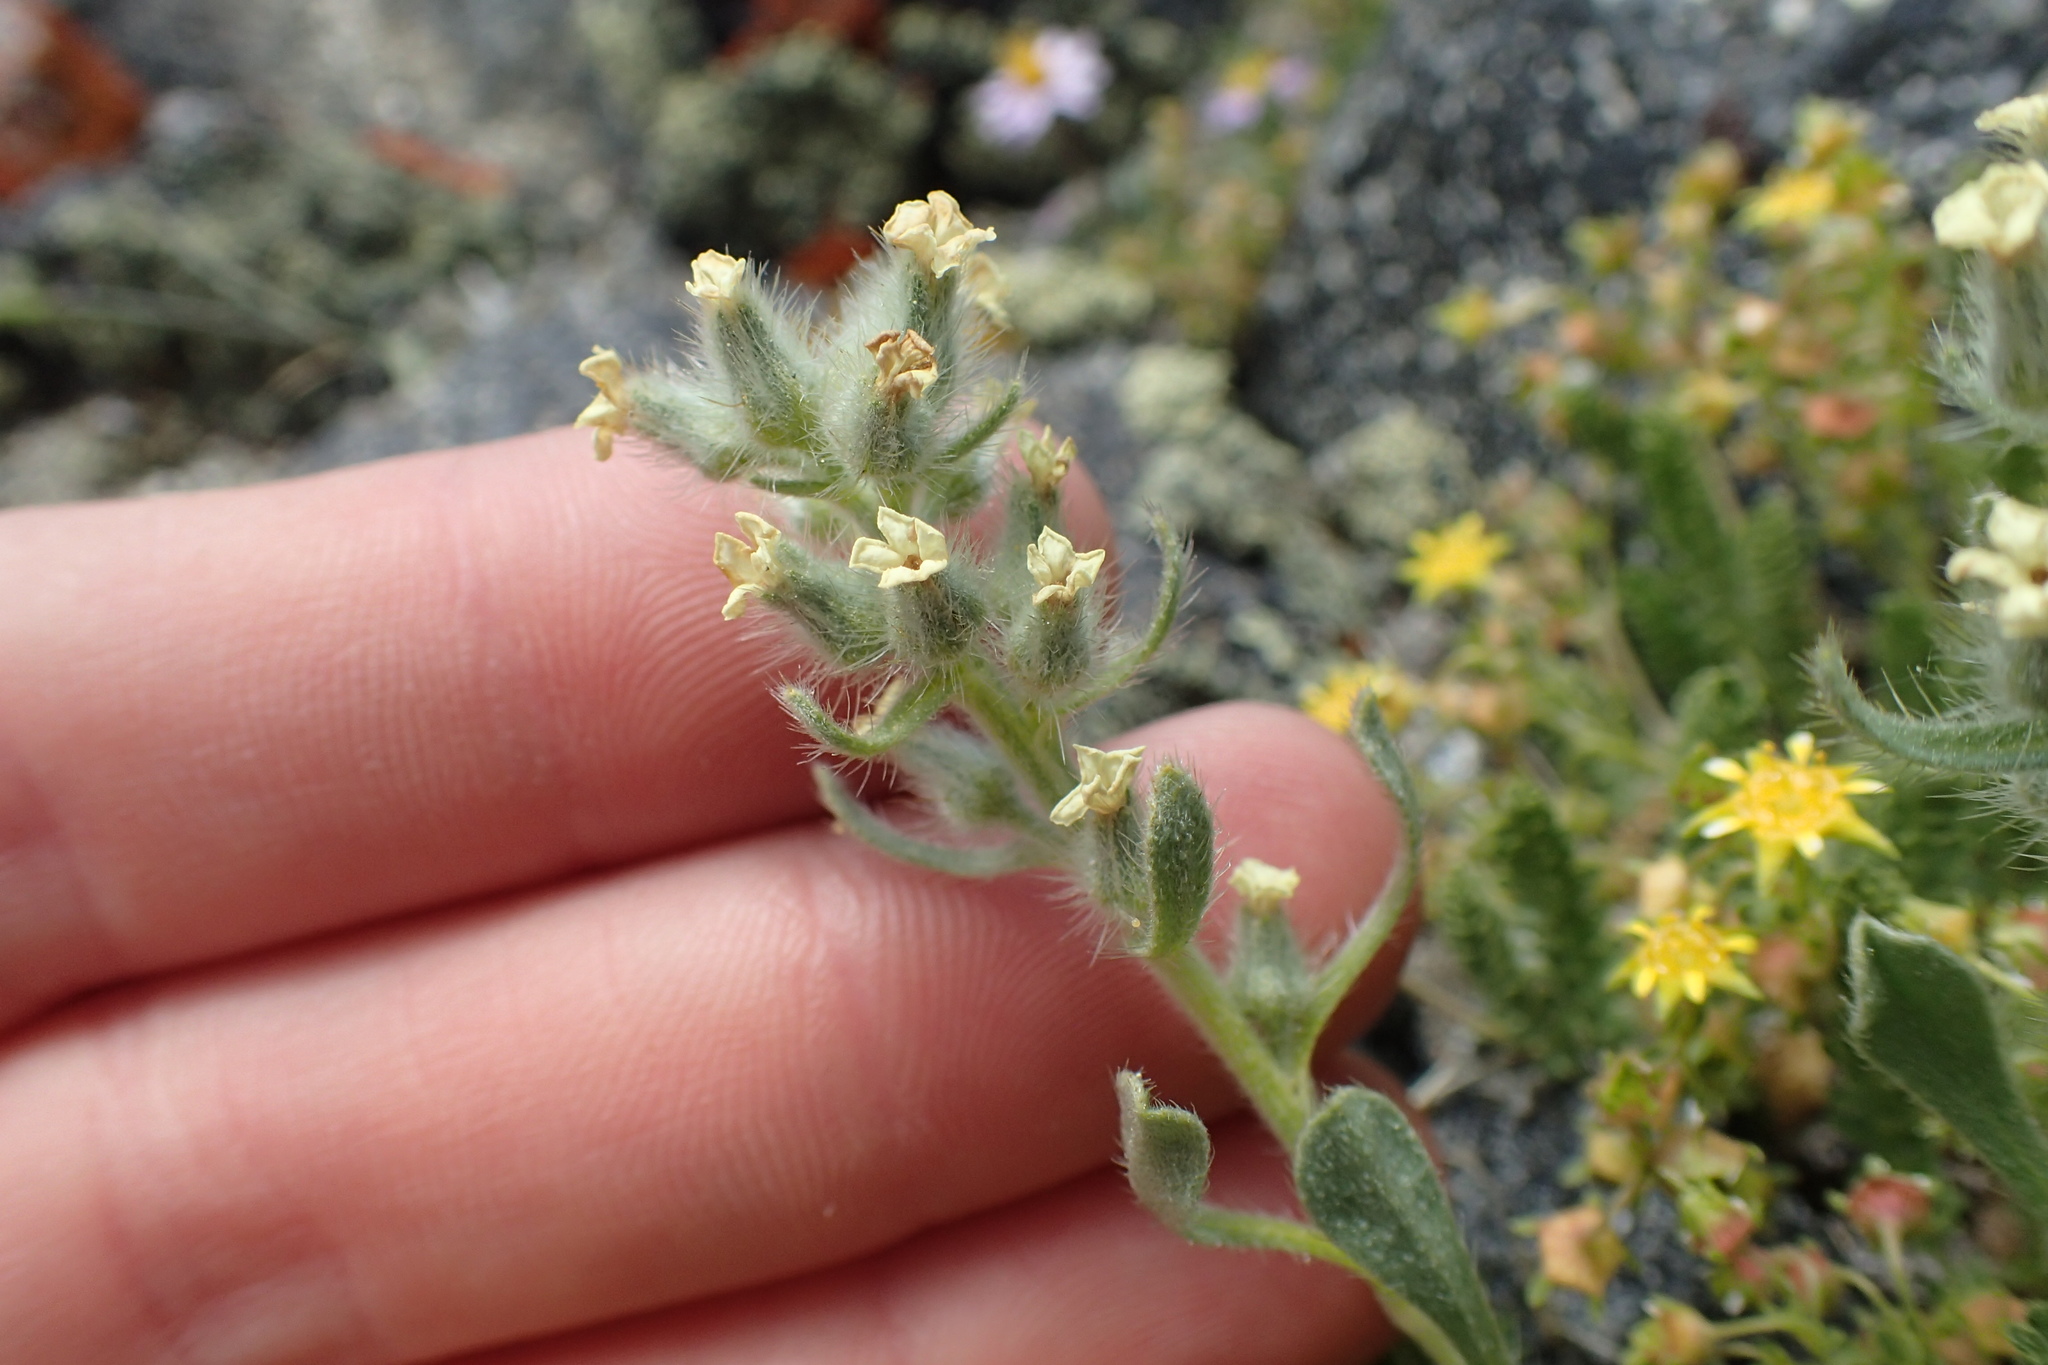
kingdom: Plantae
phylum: Tracheophyta
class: Magnoliopsida
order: Boraginales
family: Boraginaceae
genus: Oreocarya
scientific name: Oreocarya humilis
